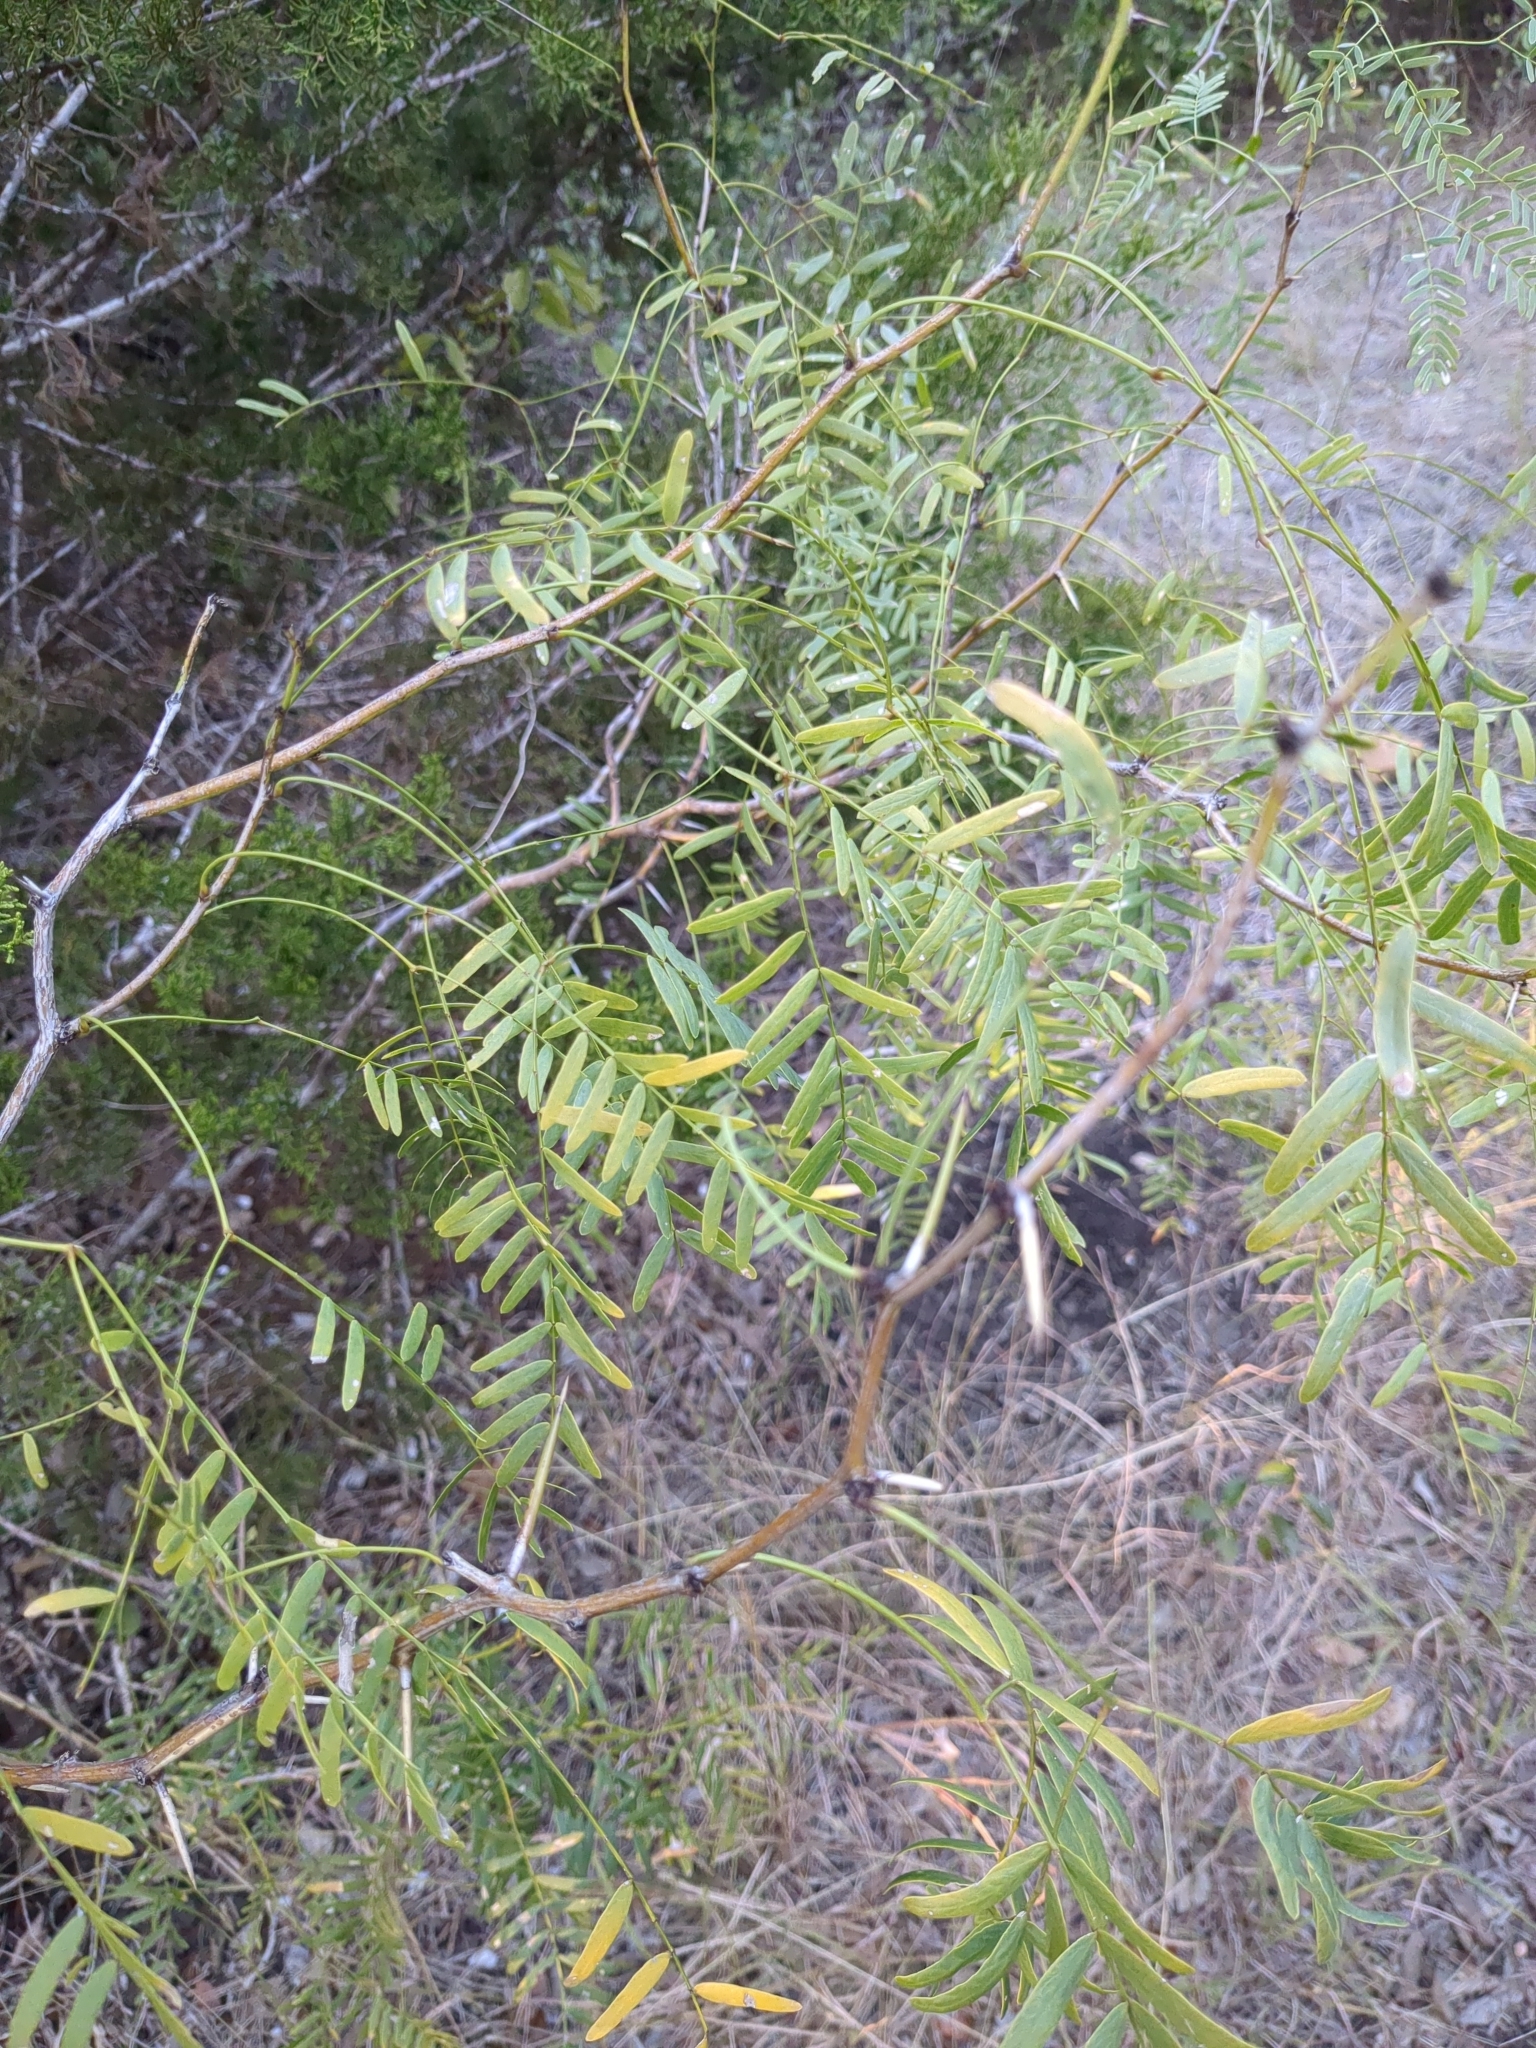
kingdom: Plantae
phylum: Tracheophyta
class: Magnoliopsida
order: Fabales
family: Fabaceae
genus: Prosopis
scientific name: Prosopis glandulosa
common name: Honey mesquite
